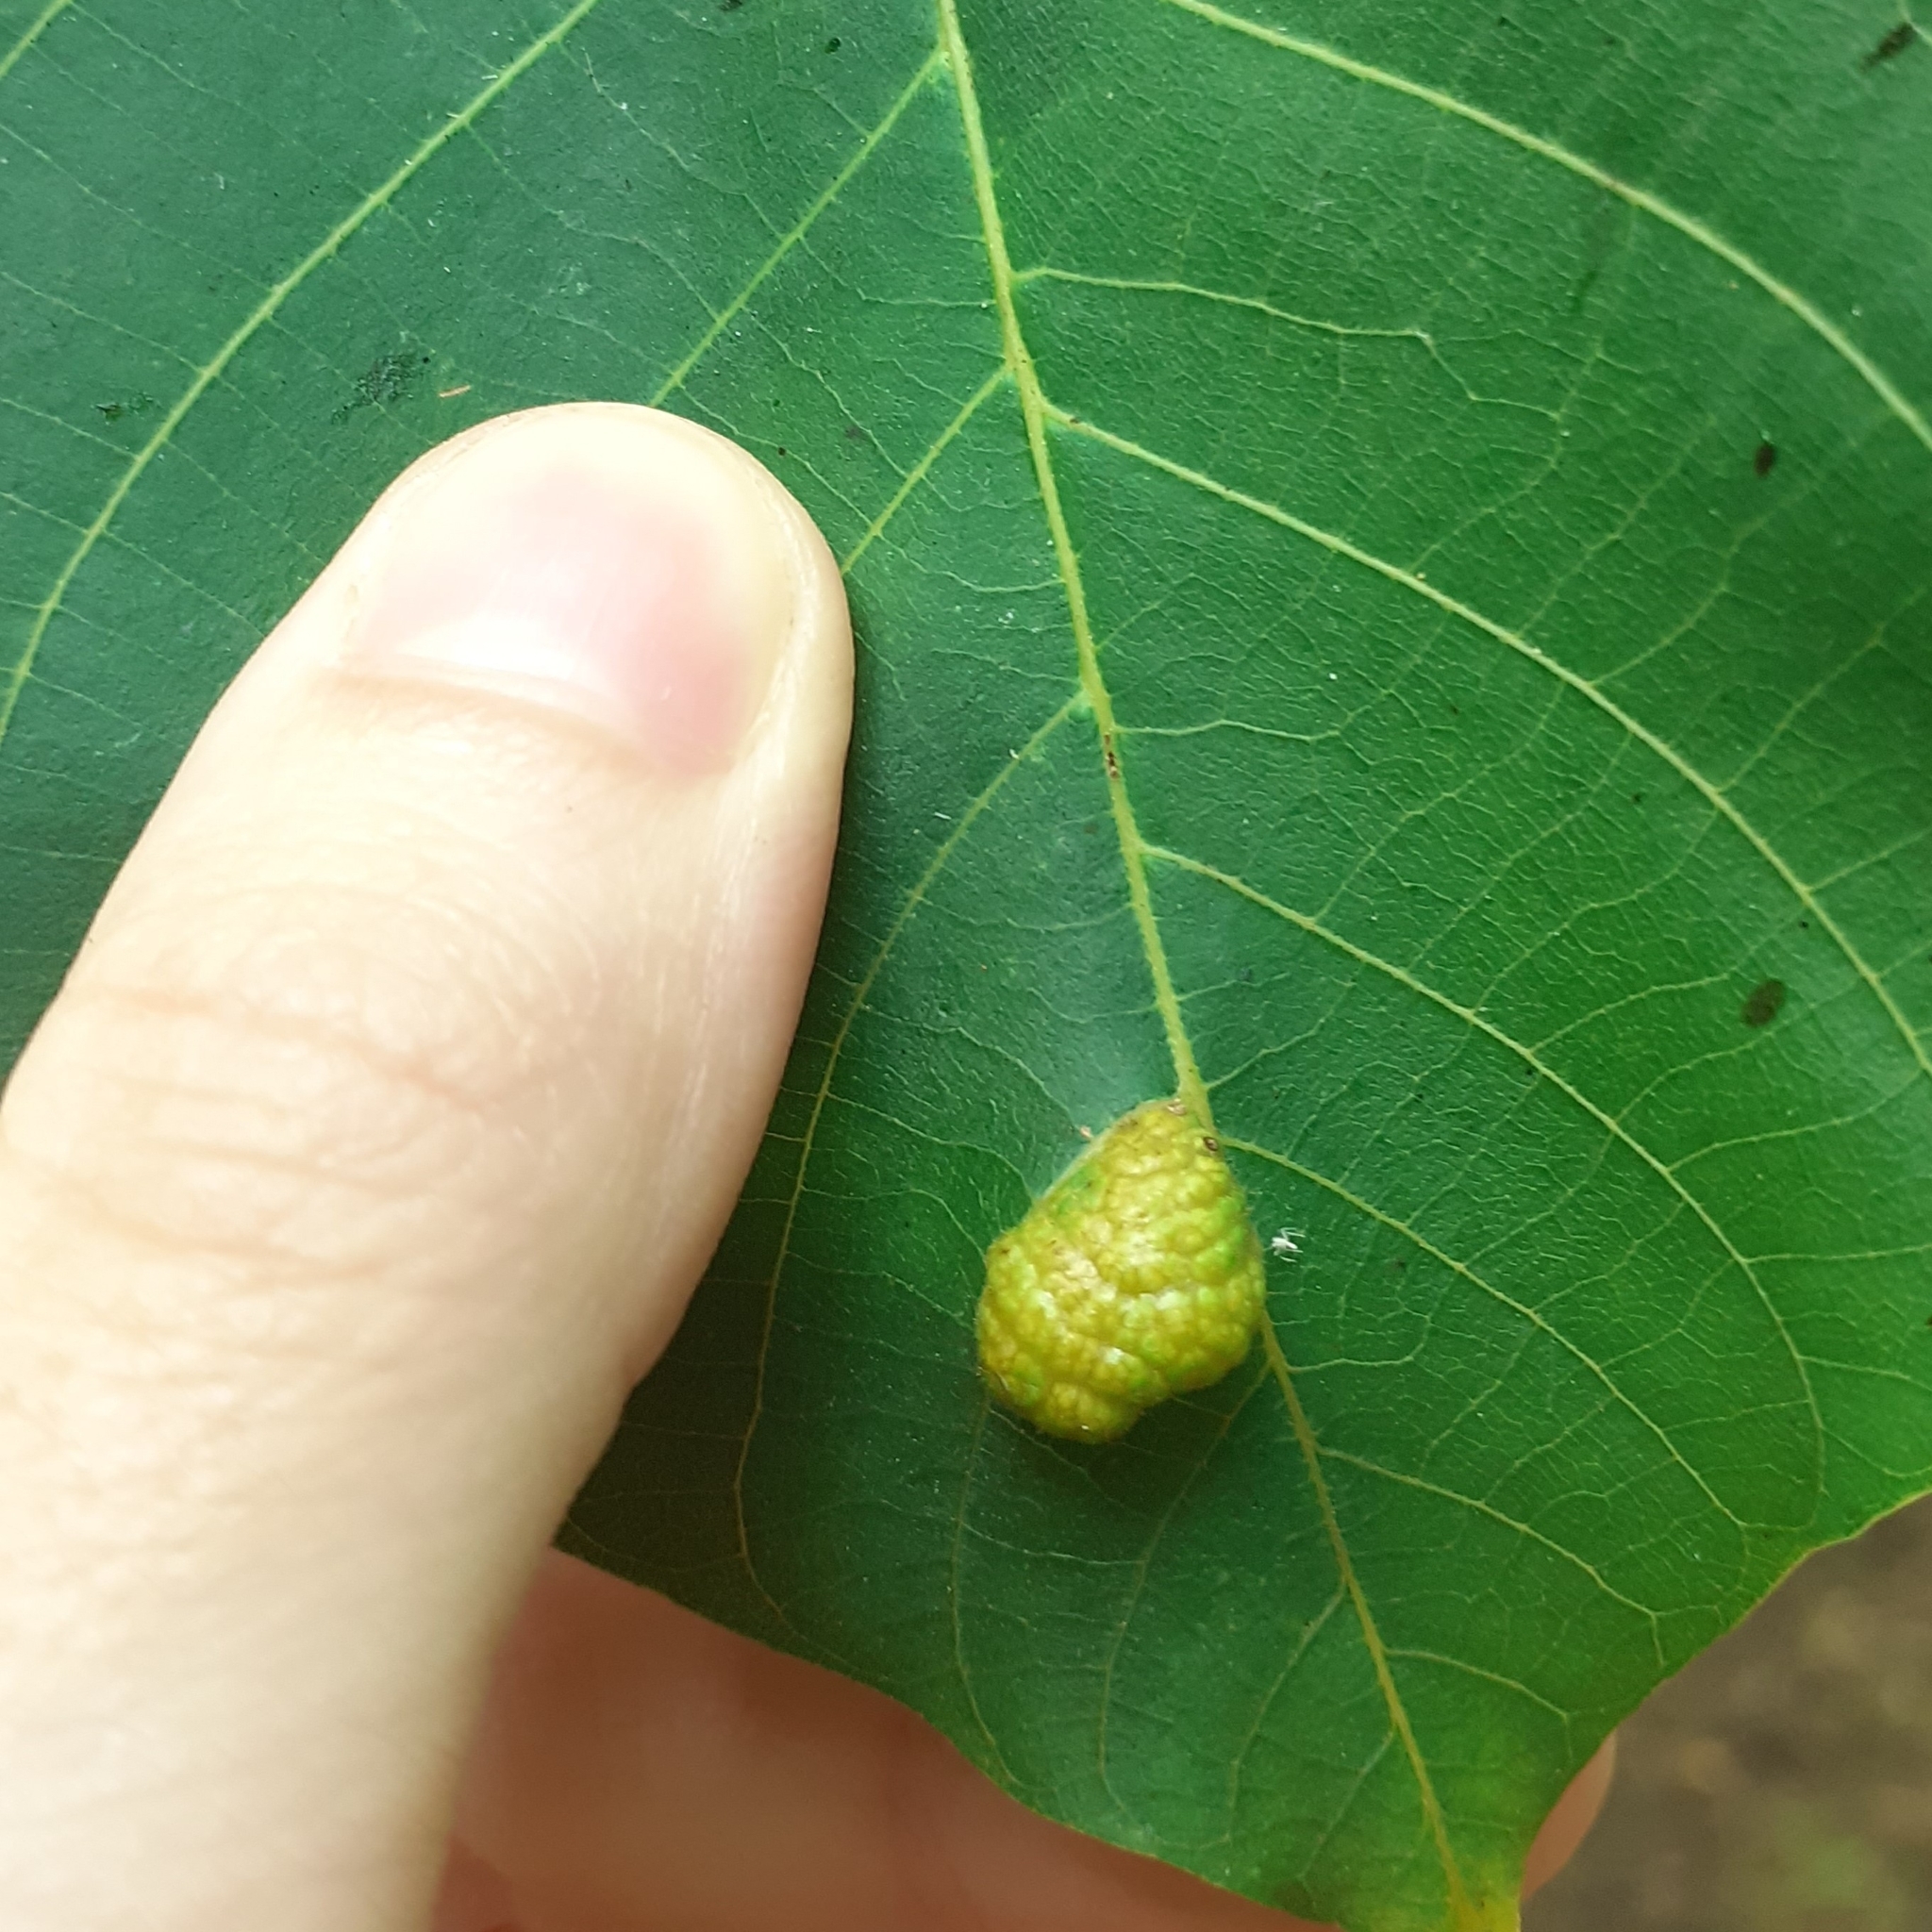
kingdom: Animalia
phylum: Arthropoda
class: Arachnida
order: Trombidiformes
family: Eriophyidae
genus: Aceria
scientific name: Aceria erinea
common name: Persian walnut erineum mite
